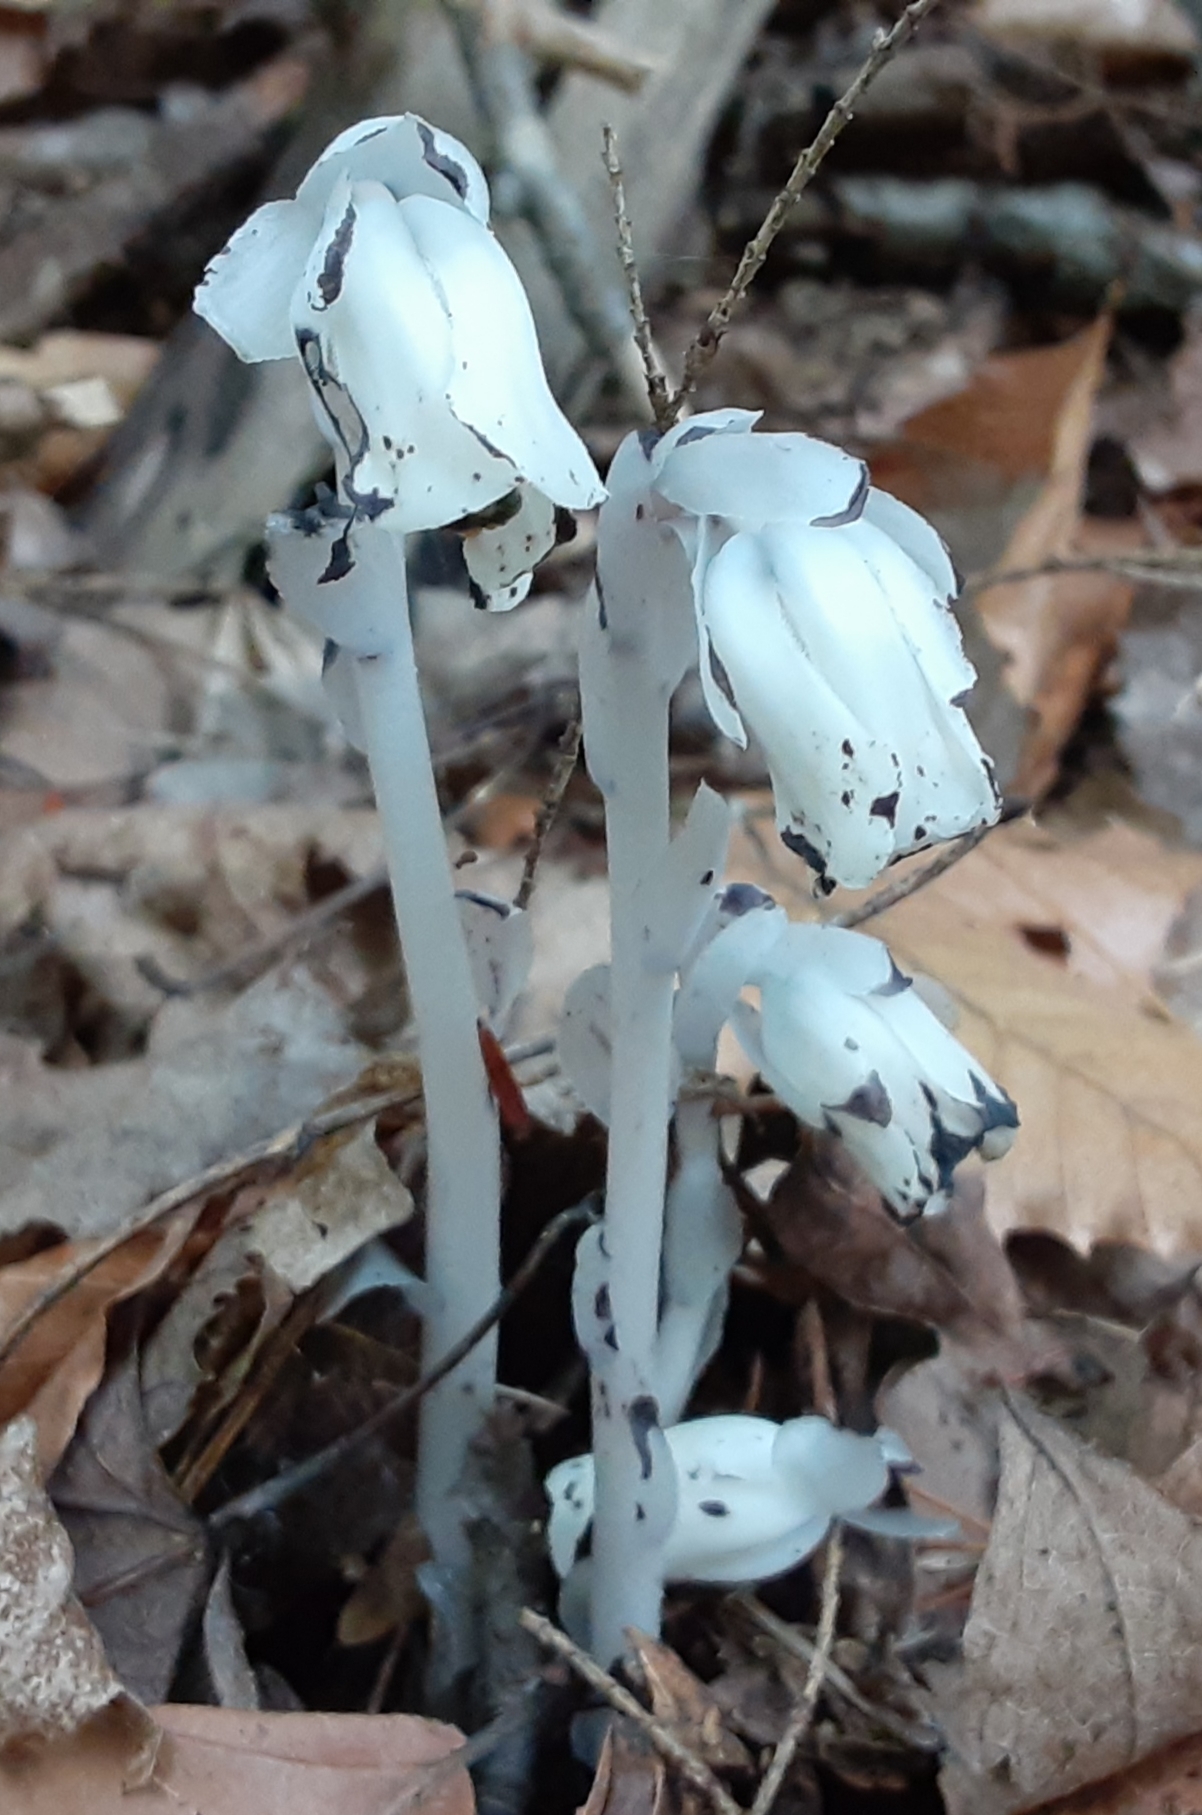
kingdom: Plantae
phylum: Tracheophyta
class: Magnoliopsida
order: Ericales
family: Ericaceae
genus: Monotropa
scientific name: Monotropa uniflora
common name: Convulsion root
